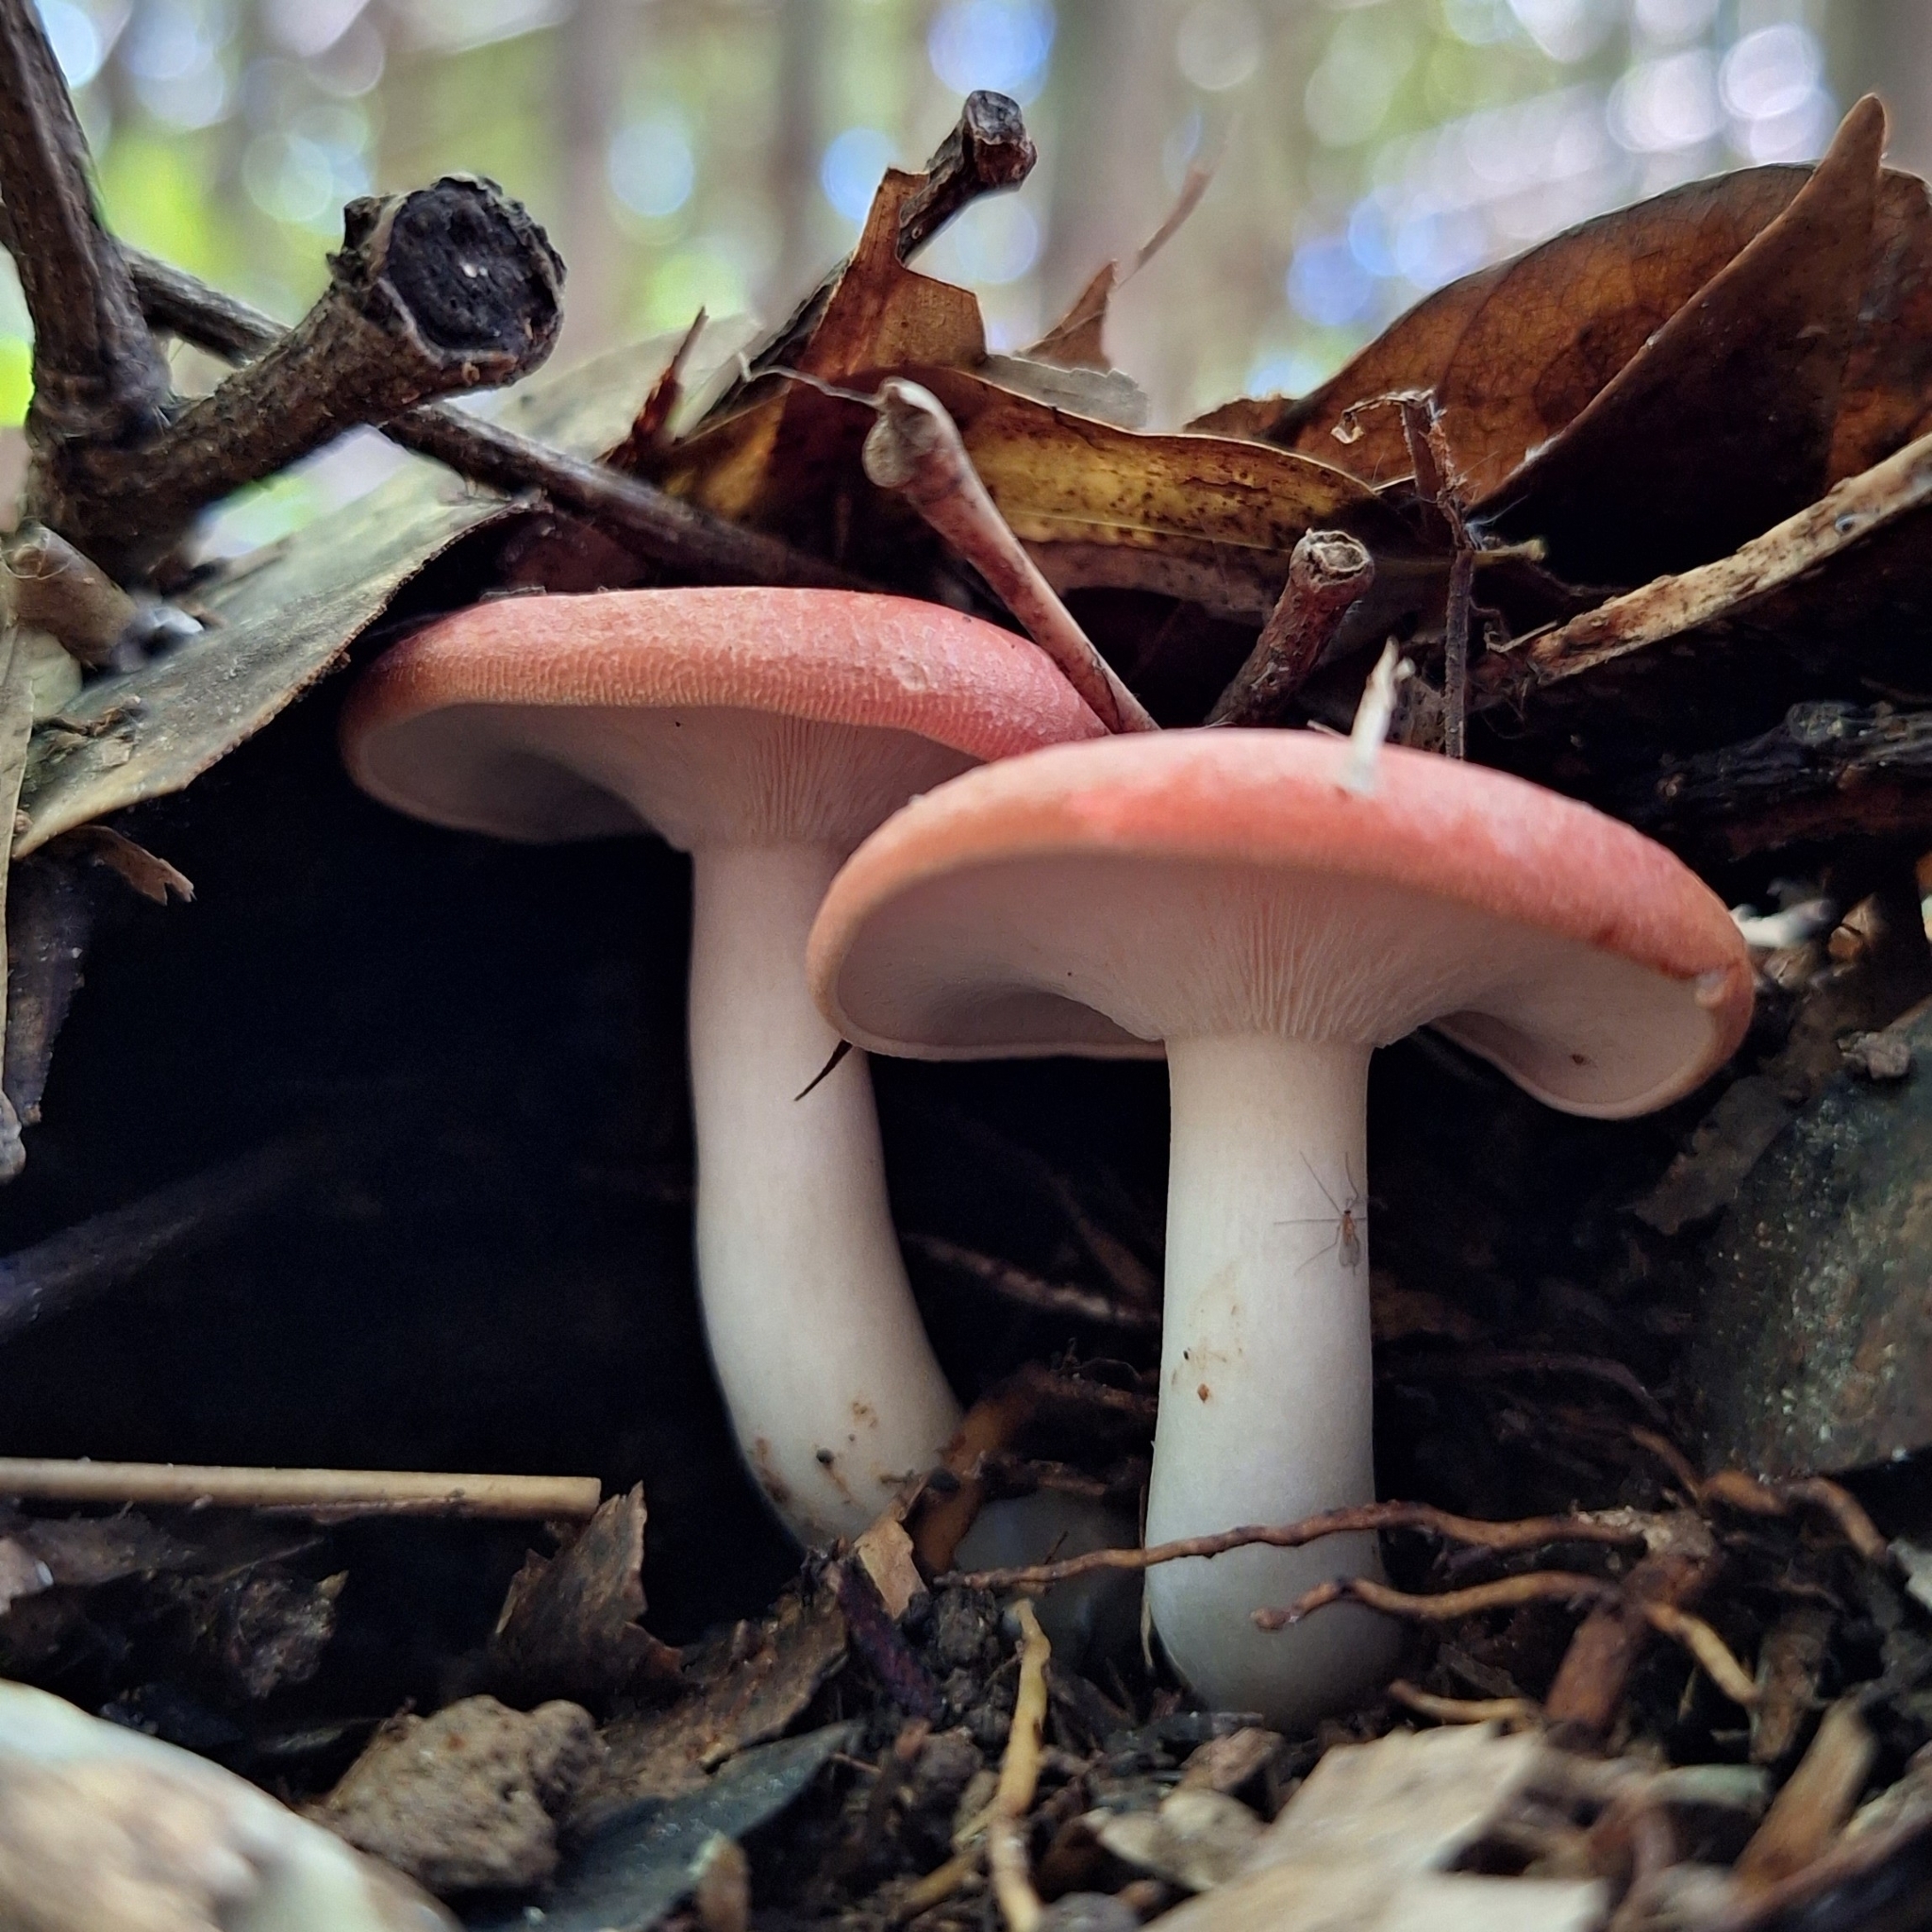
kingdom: Fungi
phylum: Basidiomycota
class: Agaricomycetes
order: Agaricales
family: Tricholomataceae
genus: Leucopaxillus
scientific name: Leucopaxillus gracillimus
